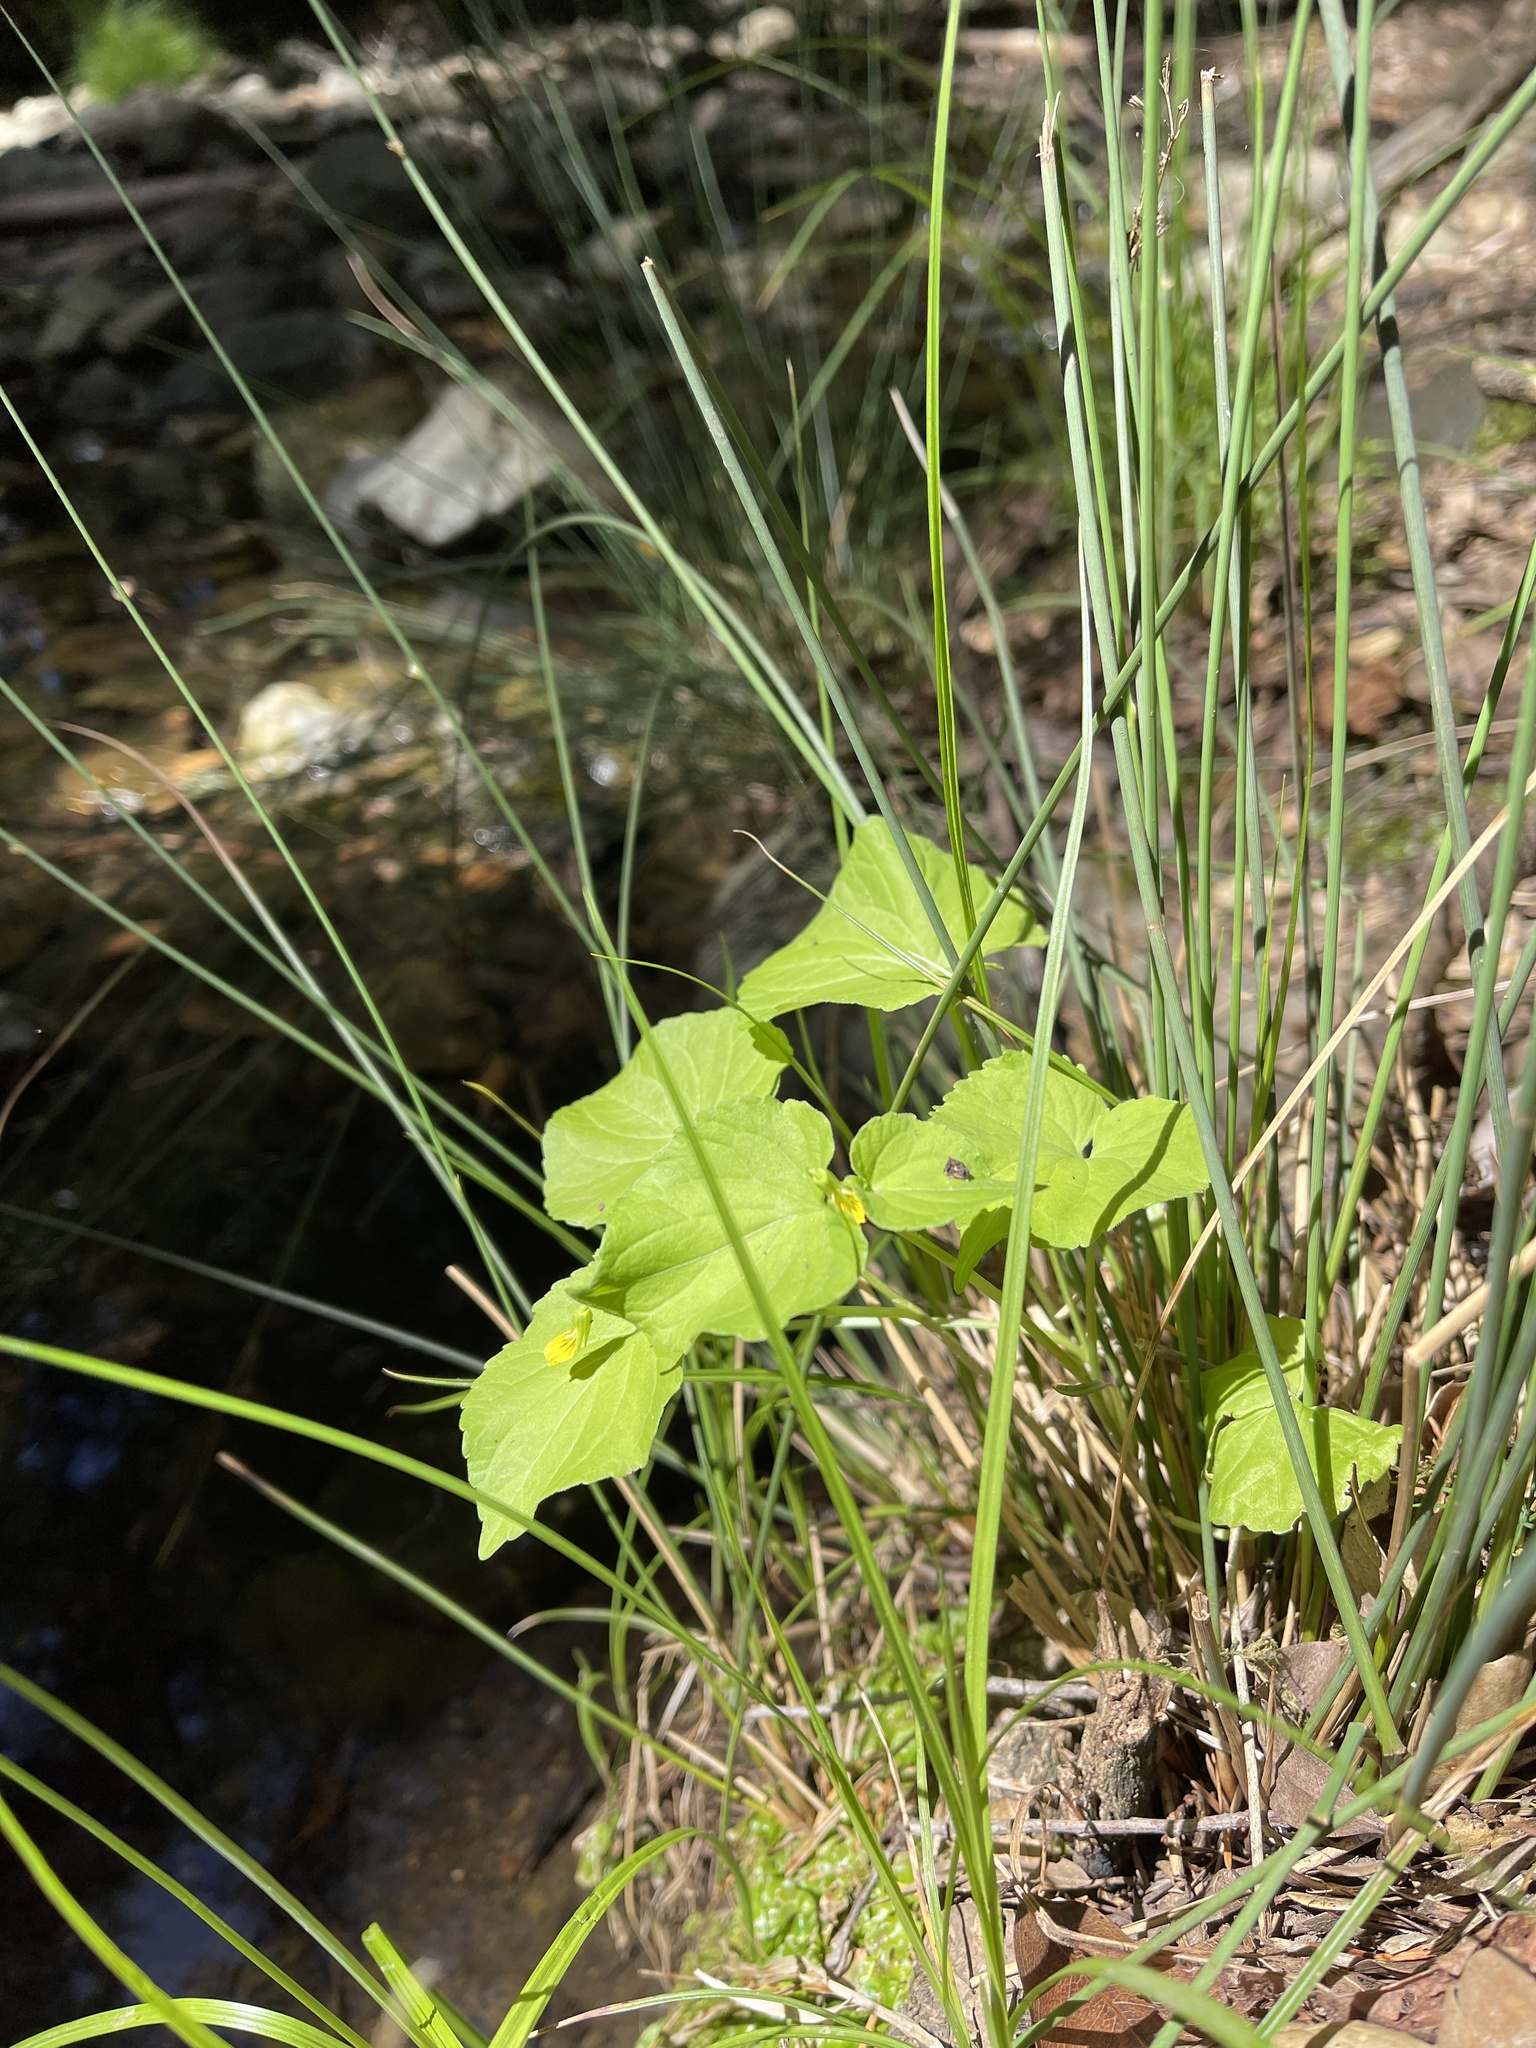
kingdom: Plantae
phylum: Tracheophyta
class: Magnoliopsida
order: Malpighiales
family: Violaceae
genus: Viola
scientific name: Viola glabella
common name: Stream violet
